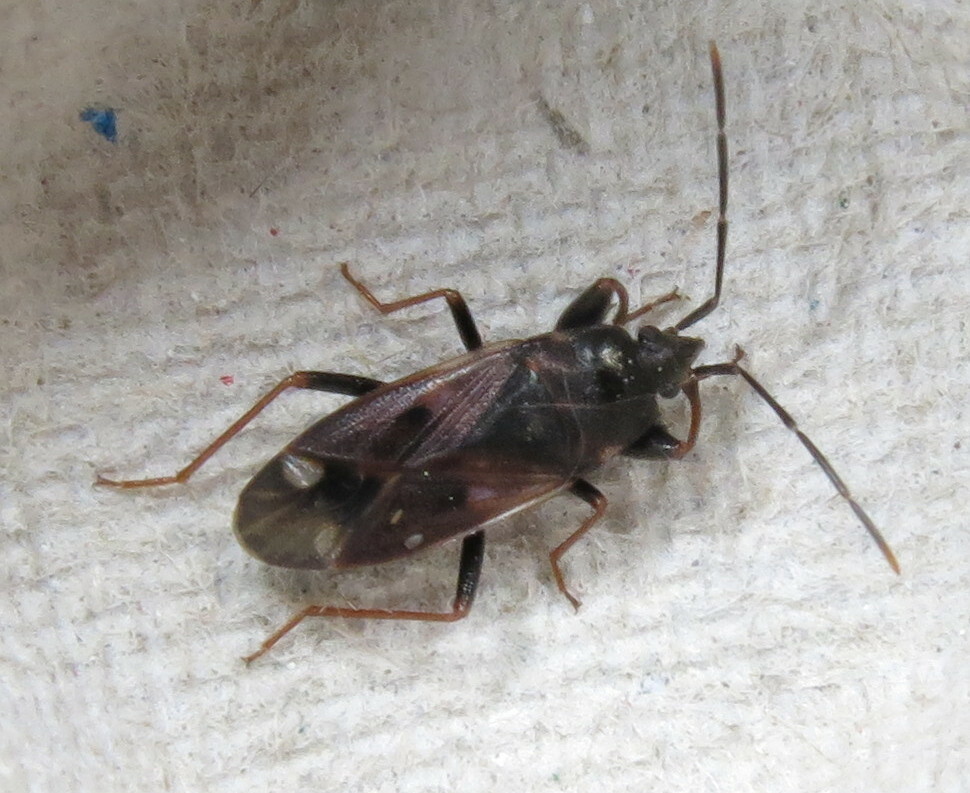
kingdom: Animalia
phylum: Arthropoda
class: Insecta
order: Hemiptera
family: Rhyparochromidae
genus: Eremocoris
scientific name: Eremocoris fenestratus
